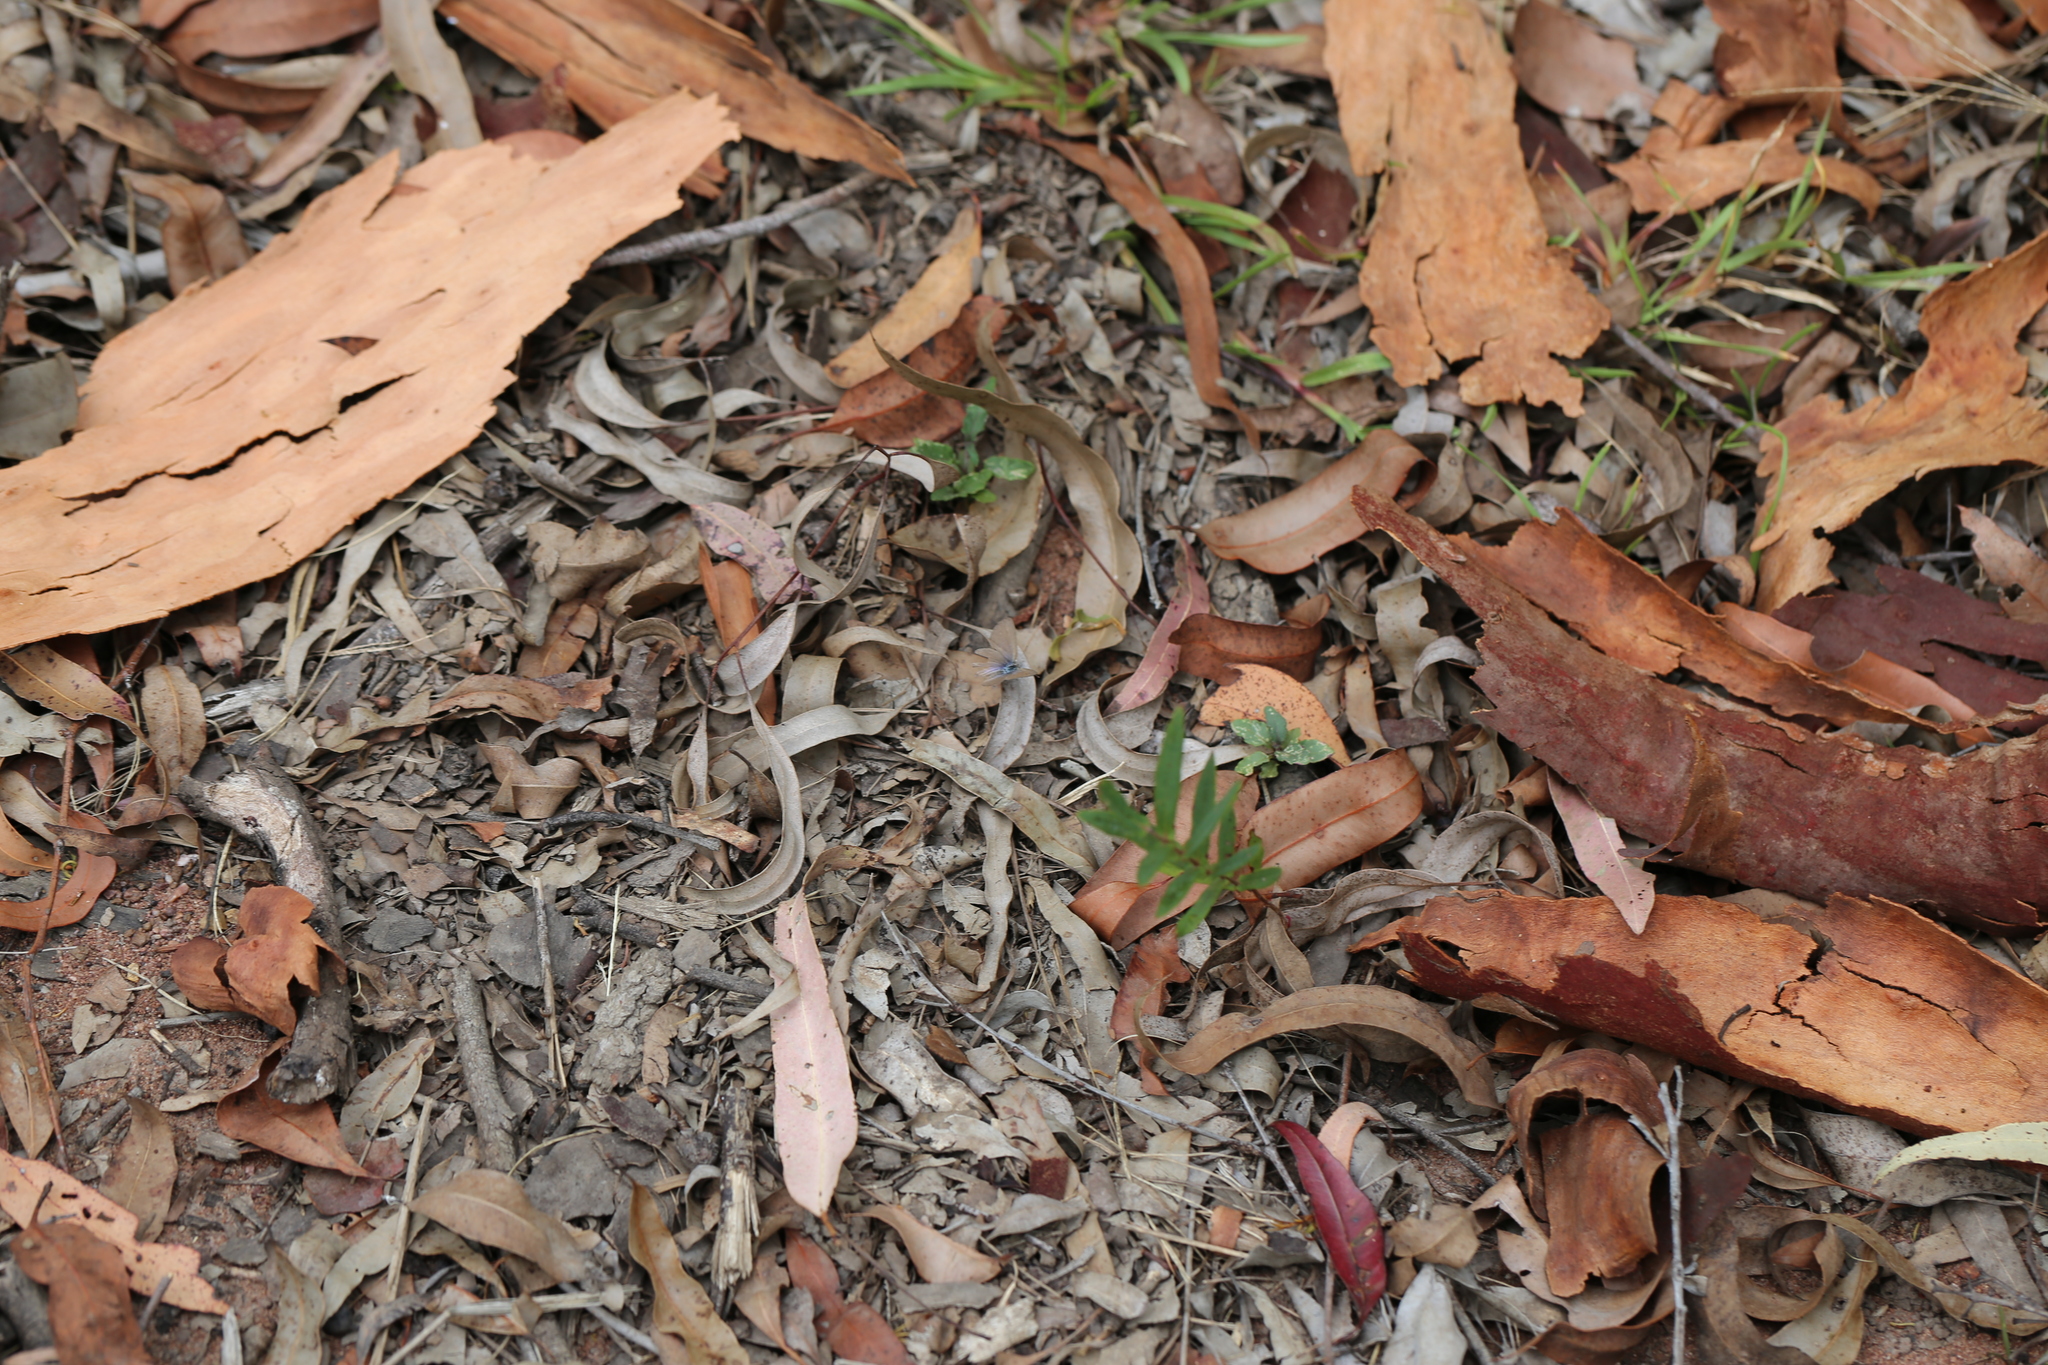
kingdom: Animalia
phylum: Arthropoda
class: Insecta
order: Lepidoptera
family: Lycaenidae
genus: Zizina
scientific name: Zizina labradus
